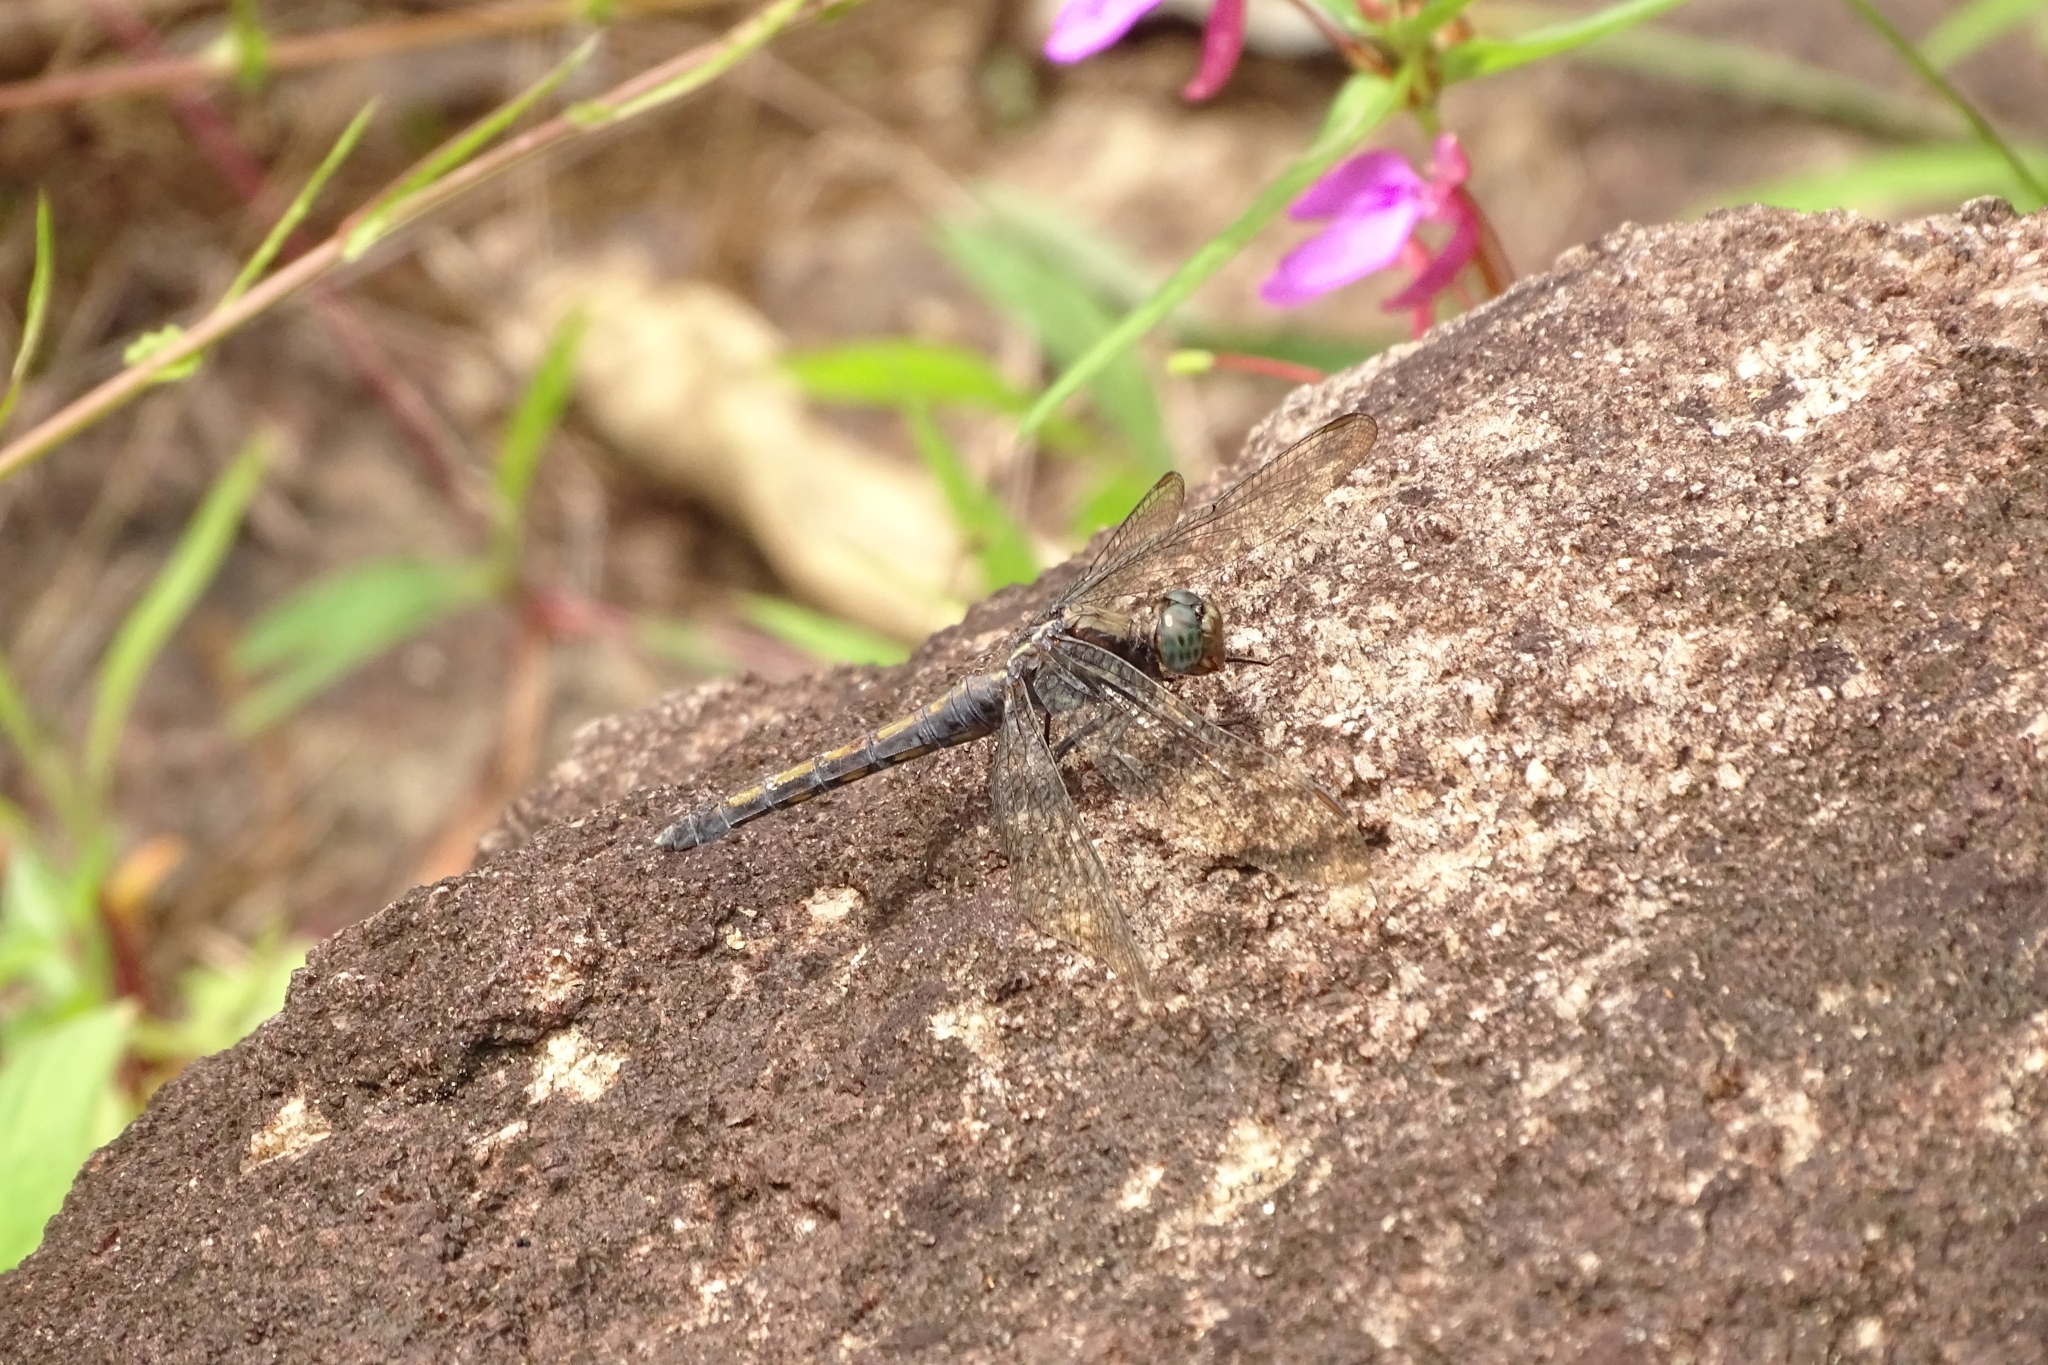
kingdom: Animalia
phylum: Arthropoda
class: Insecta
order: Odonata
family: Libellulidae
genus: Orthetrum
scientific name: Orthetrum glaucum
